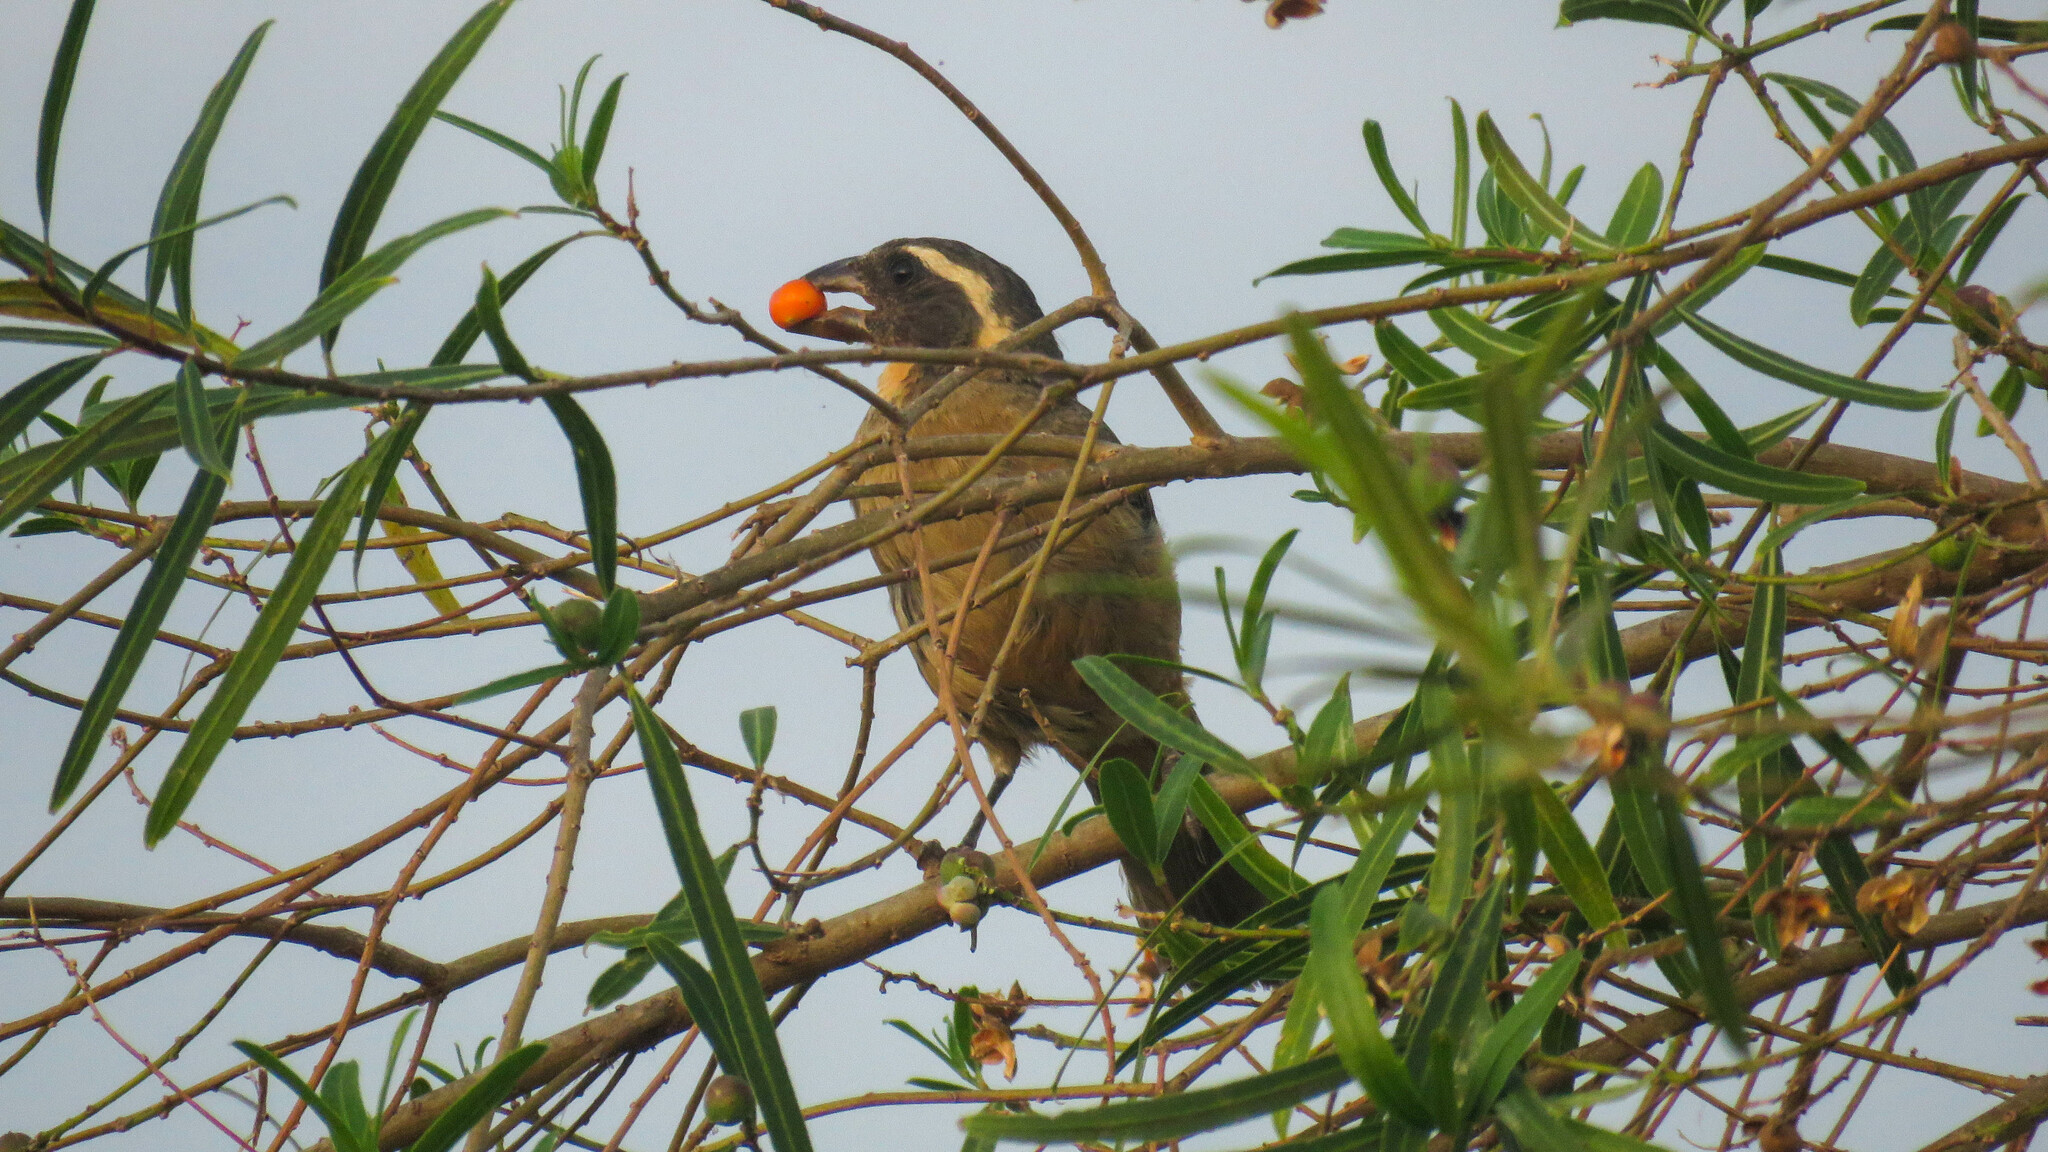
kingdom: Animalia
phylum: Chordata
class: Aves
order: Passeriformes
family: Thraupidae
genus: Saltator
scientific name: Saltator aurantiirostris
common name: Golden-billed saltator
